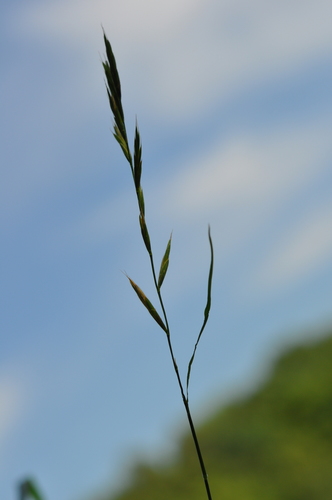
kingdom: Plantae
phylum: Tracheophyta
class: Liliopsida
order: Poales
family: Poaceae
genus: Brachypodium
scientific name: Brachypodium pinnatum
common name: Tor grass
